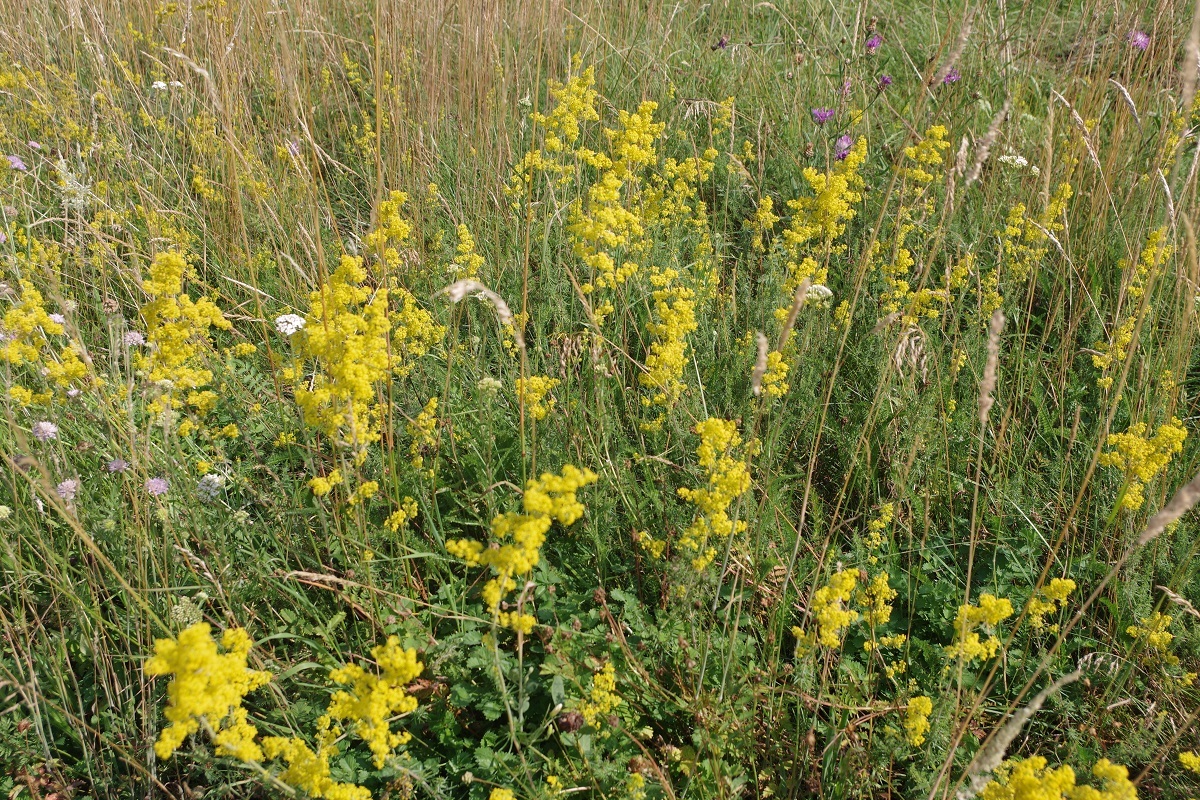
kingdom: Plantae
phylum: Tracheophyta
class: Magnoliopsida
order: Gentianales
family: Rubiaceae
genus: Galium
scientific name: Galium verum
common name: Lady's bedstraw
